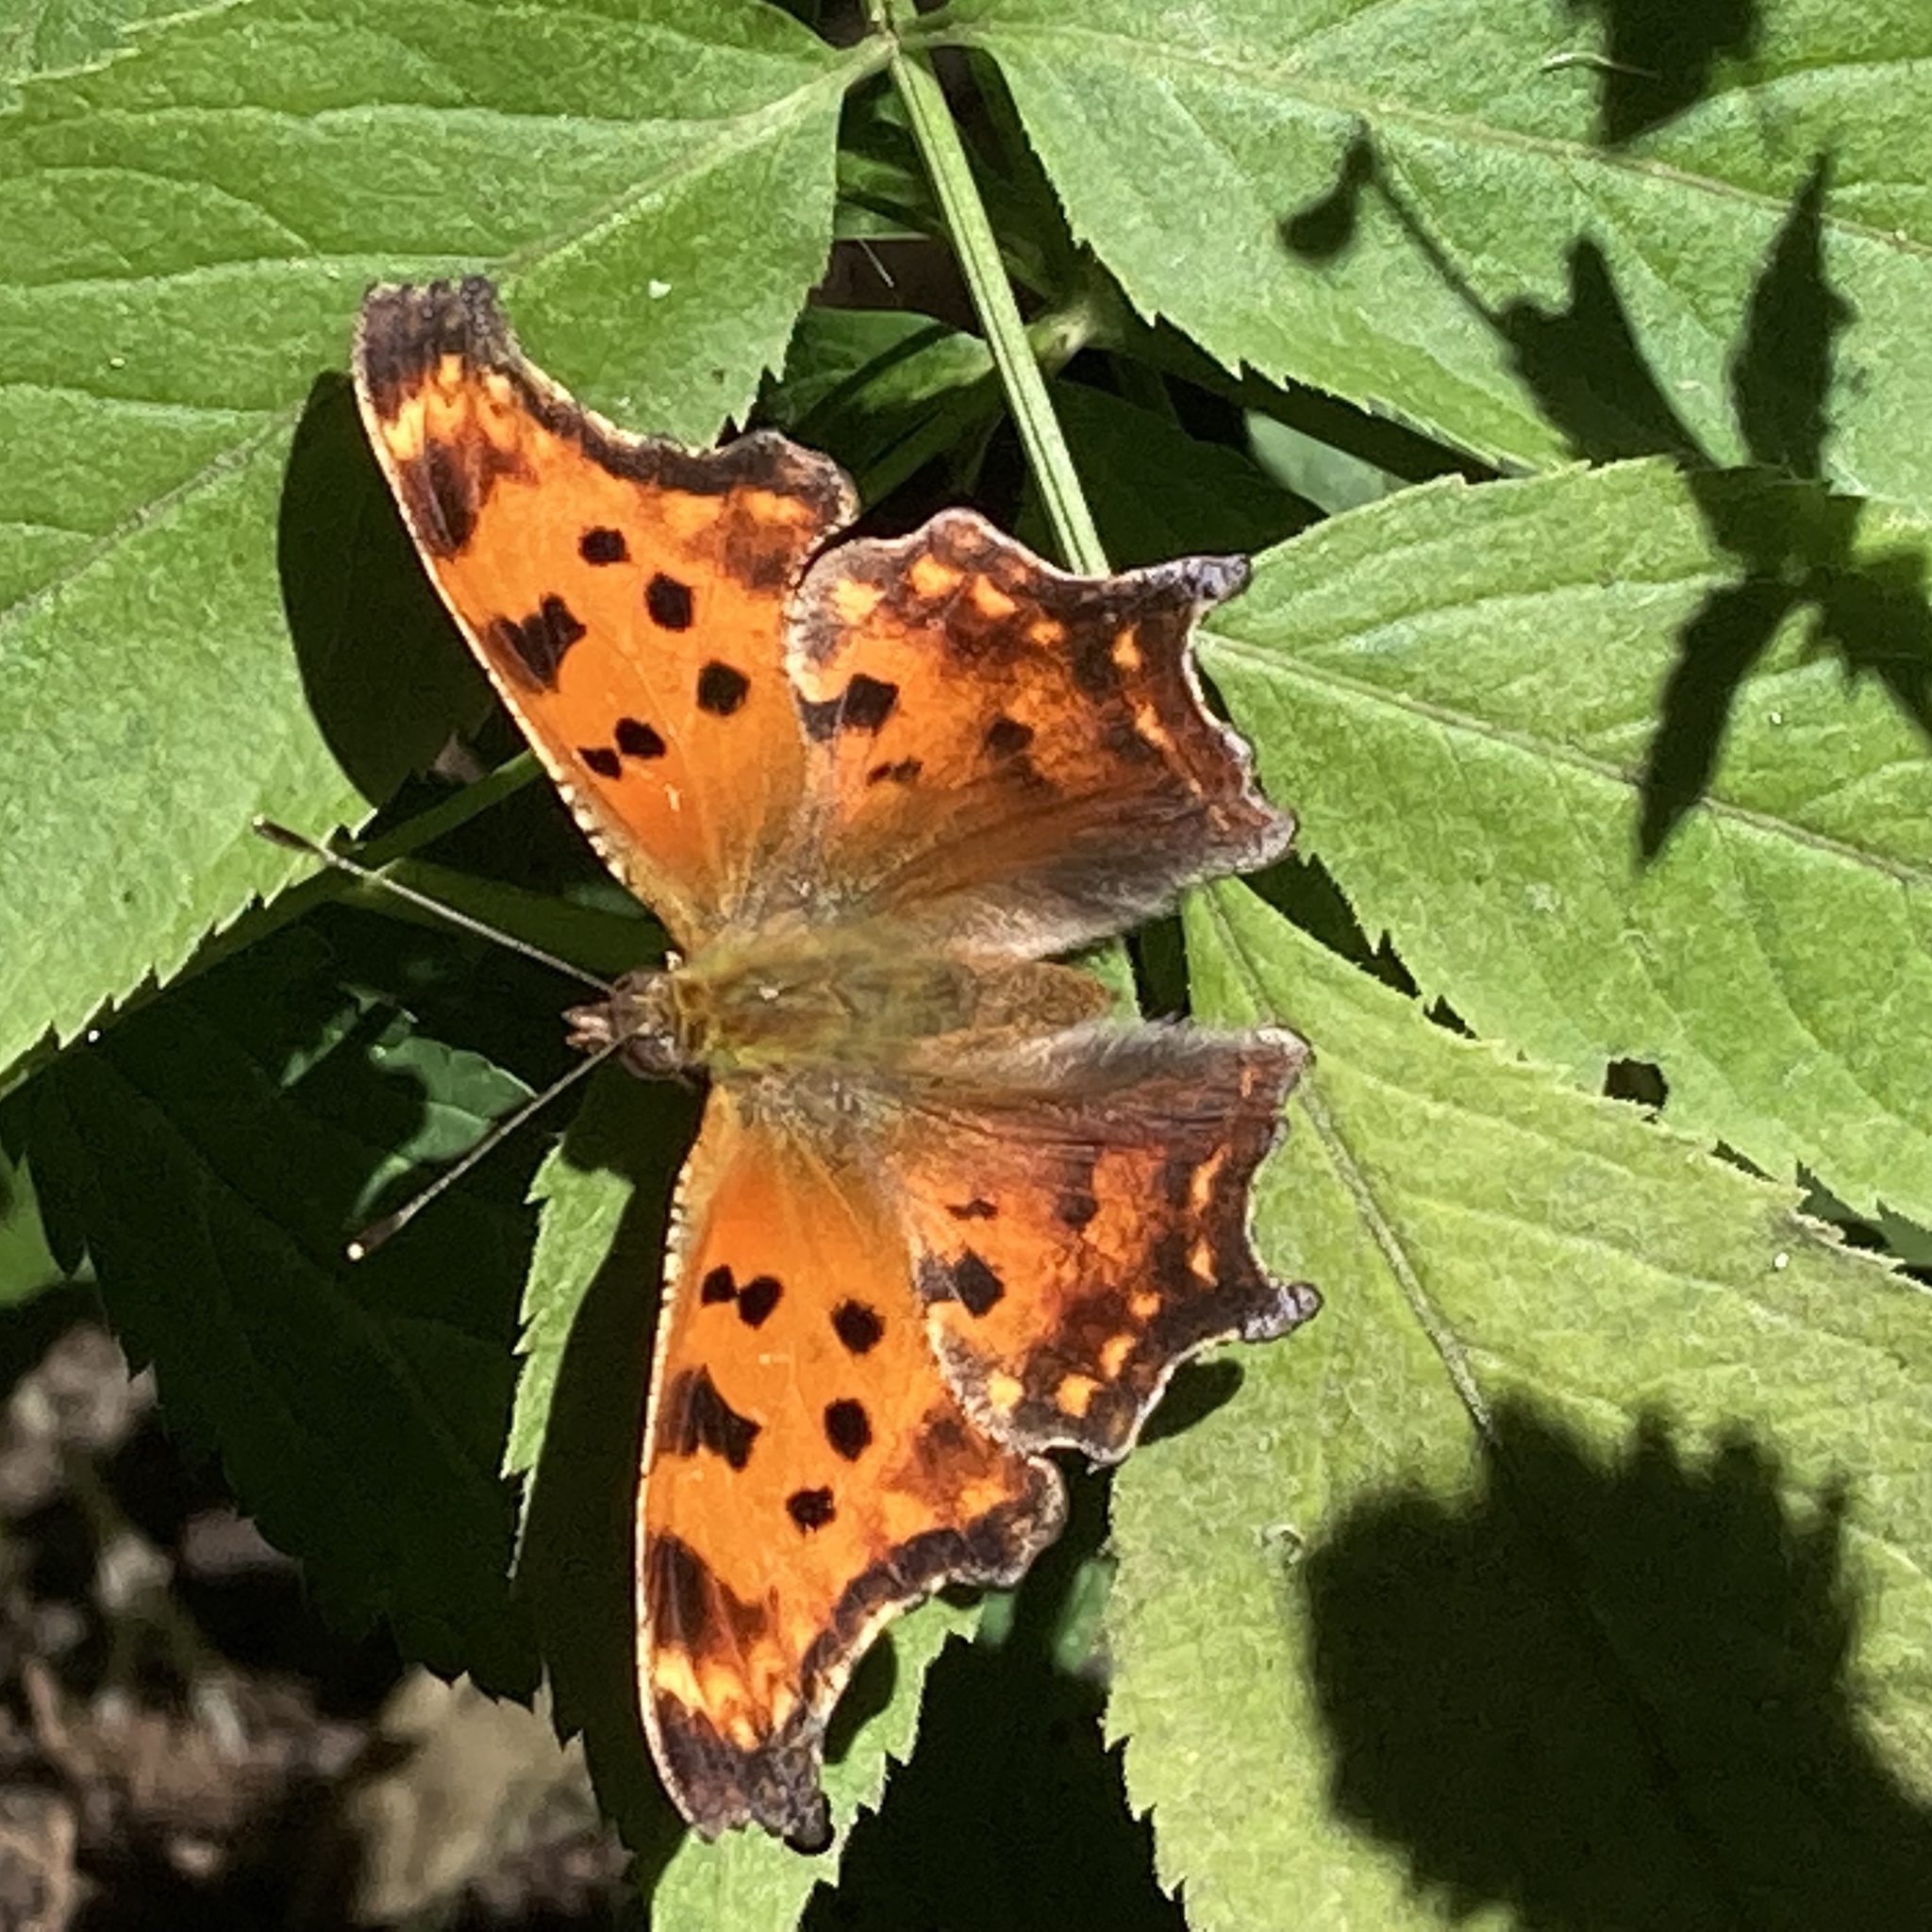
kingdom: Animalia
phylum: Arthropoda
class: Insecta
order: Lepidoptera
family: Nymphalidae
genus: Polygonia
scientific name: Polygonia comma
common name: Eastern comma
